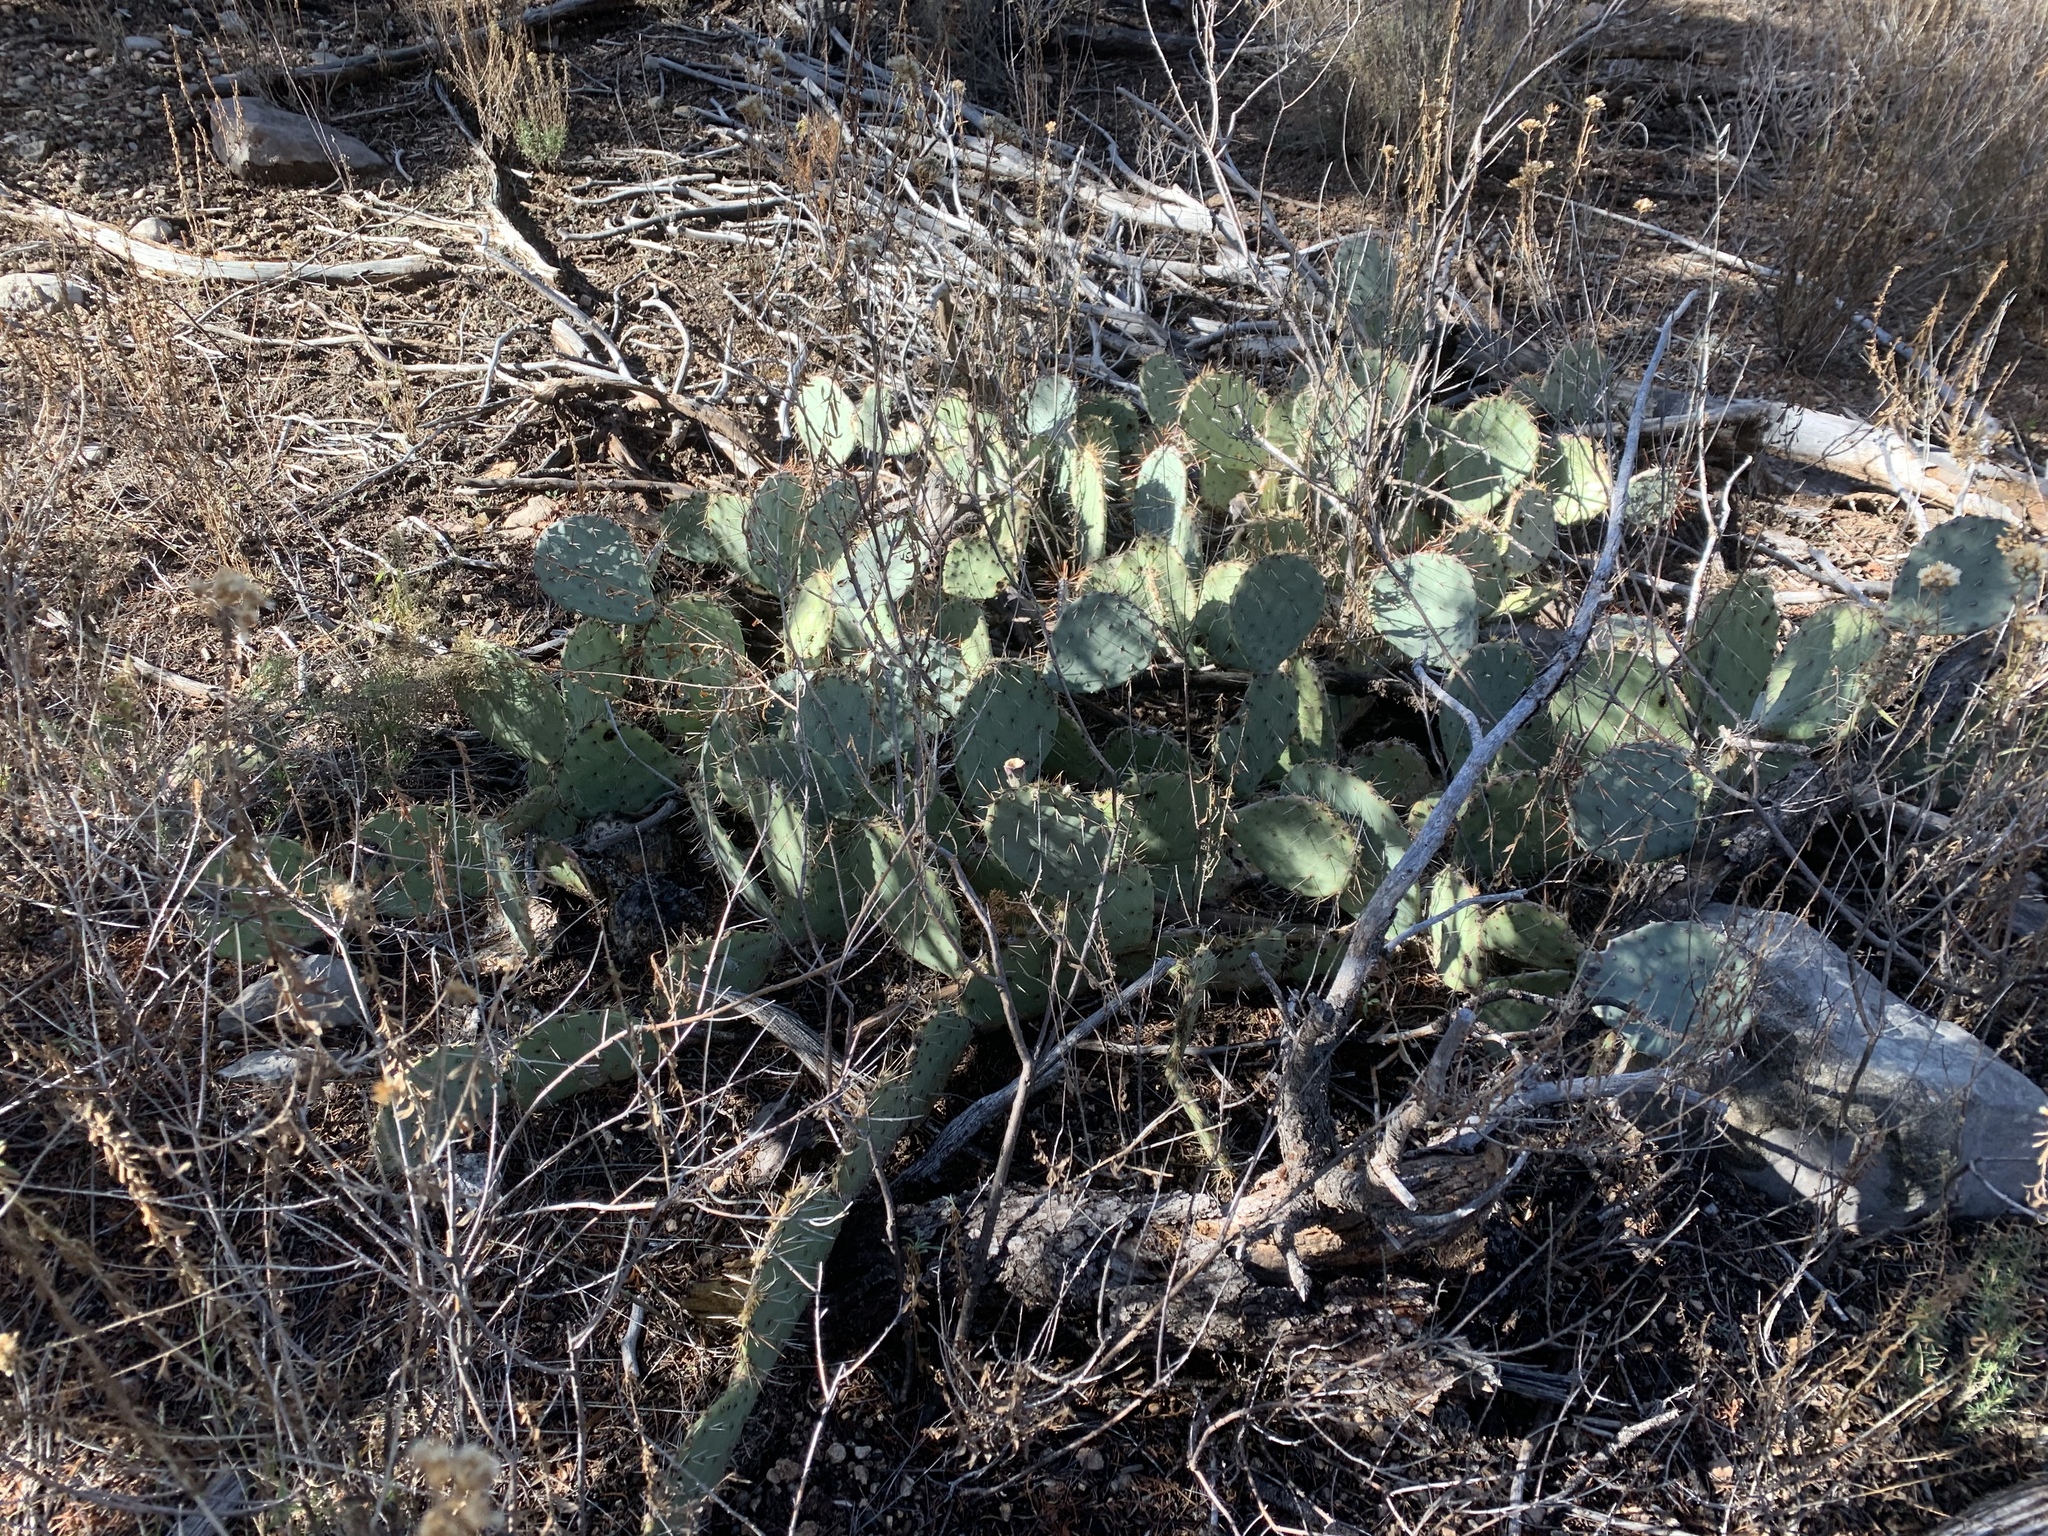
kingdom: Plantae
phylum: Tracheophyta
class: Magnoliopsida
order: Caryophyllales
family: Cactaceae
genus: Opuntia
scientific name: Opuntia engelmannii
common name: Cactus-apple
